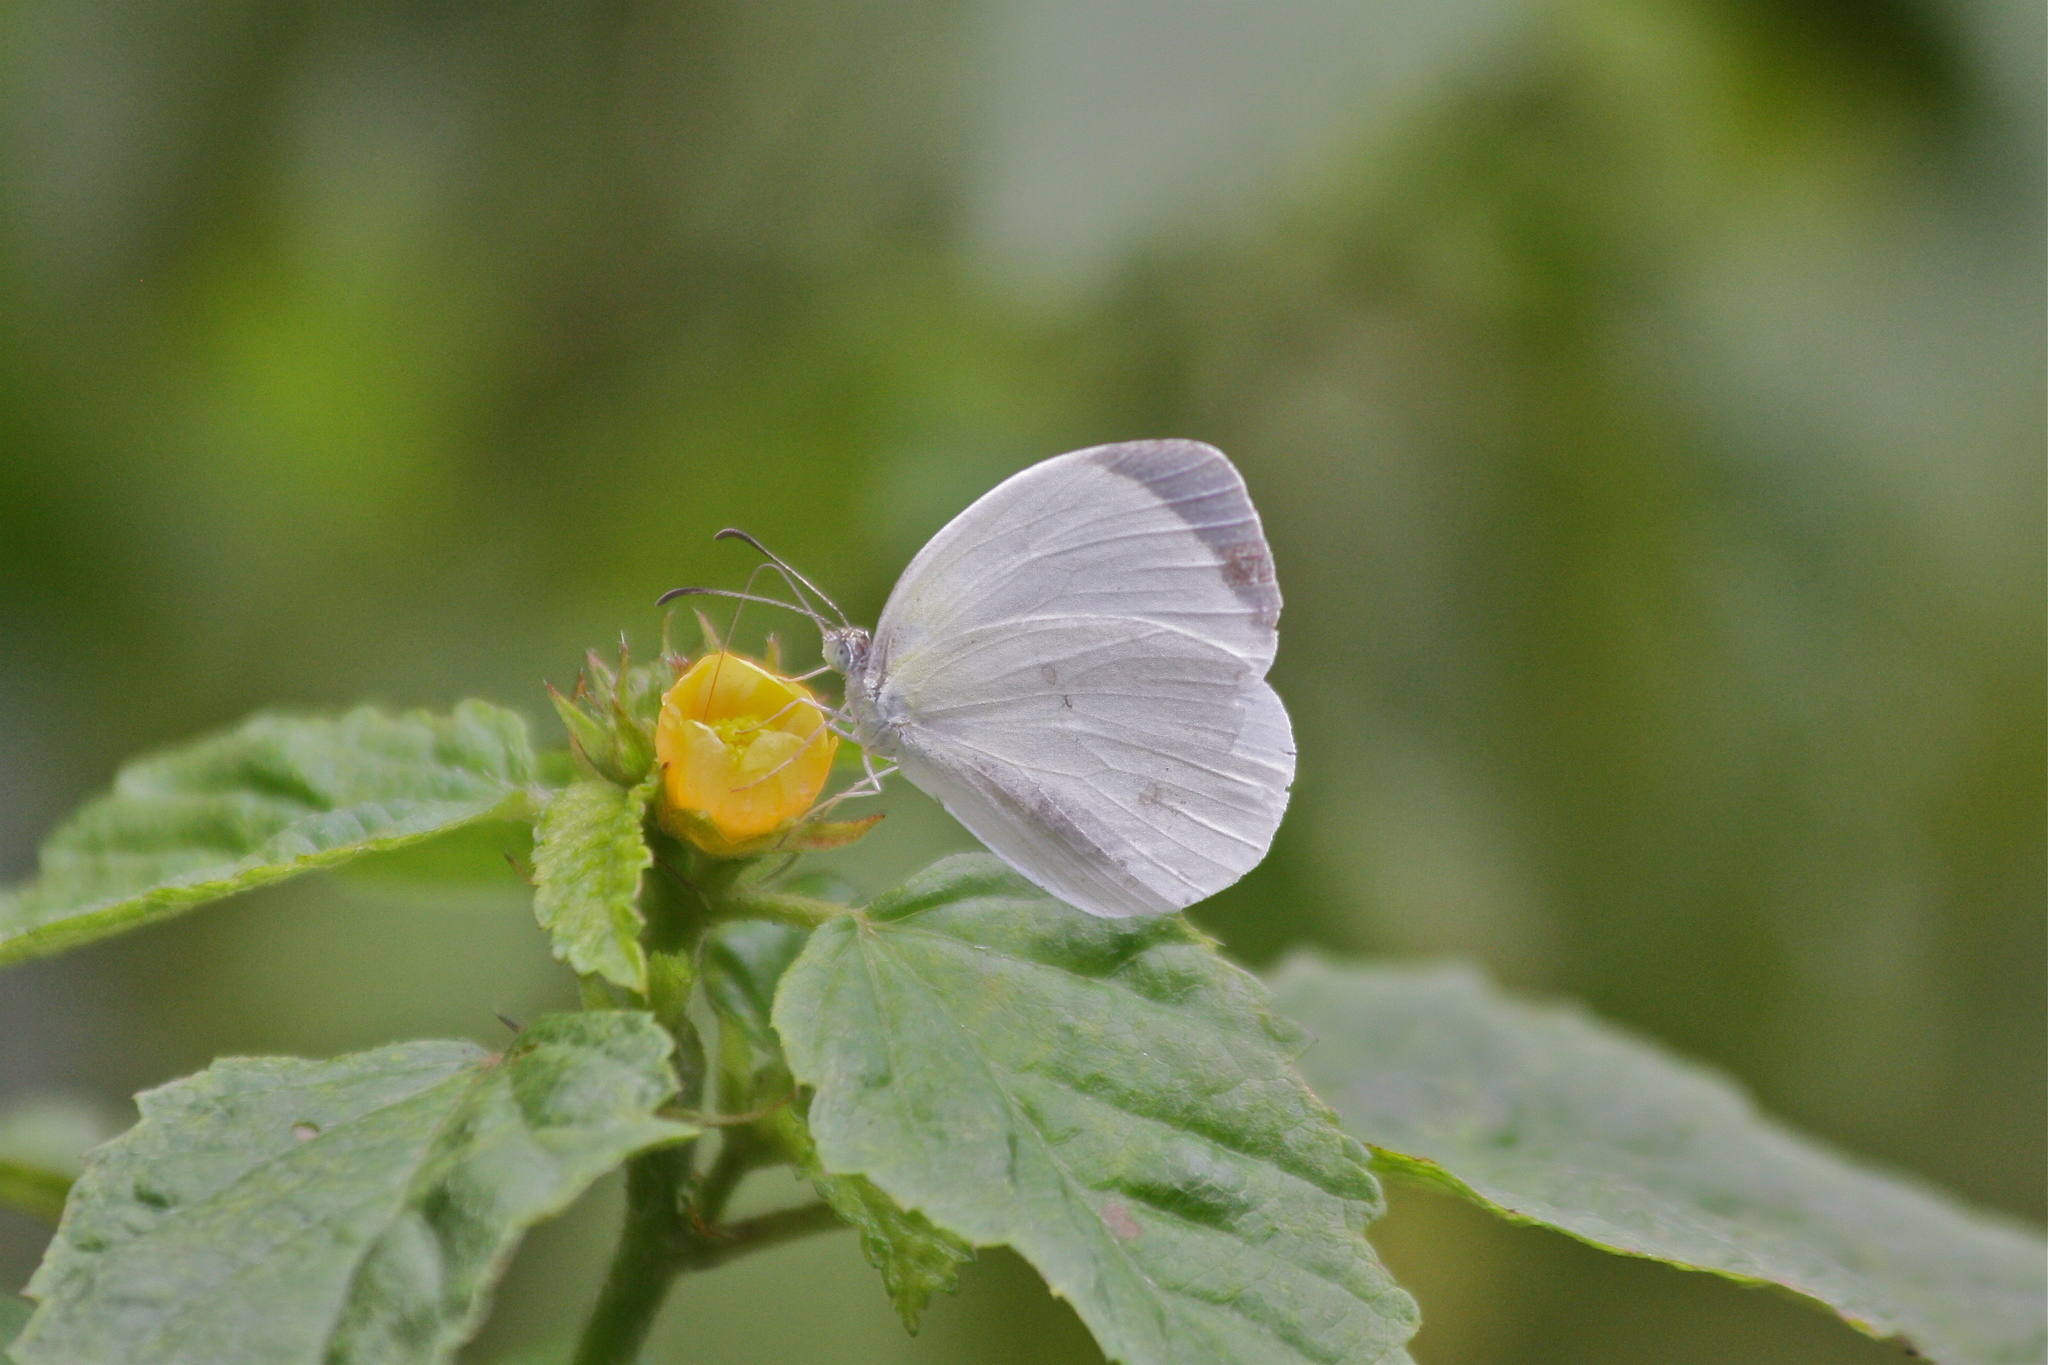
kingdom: Animalia
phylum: Arthropoda
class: Insecta
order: Lepidoptera
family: Pieridae
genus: Abaeis
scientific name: Abaeis albula
